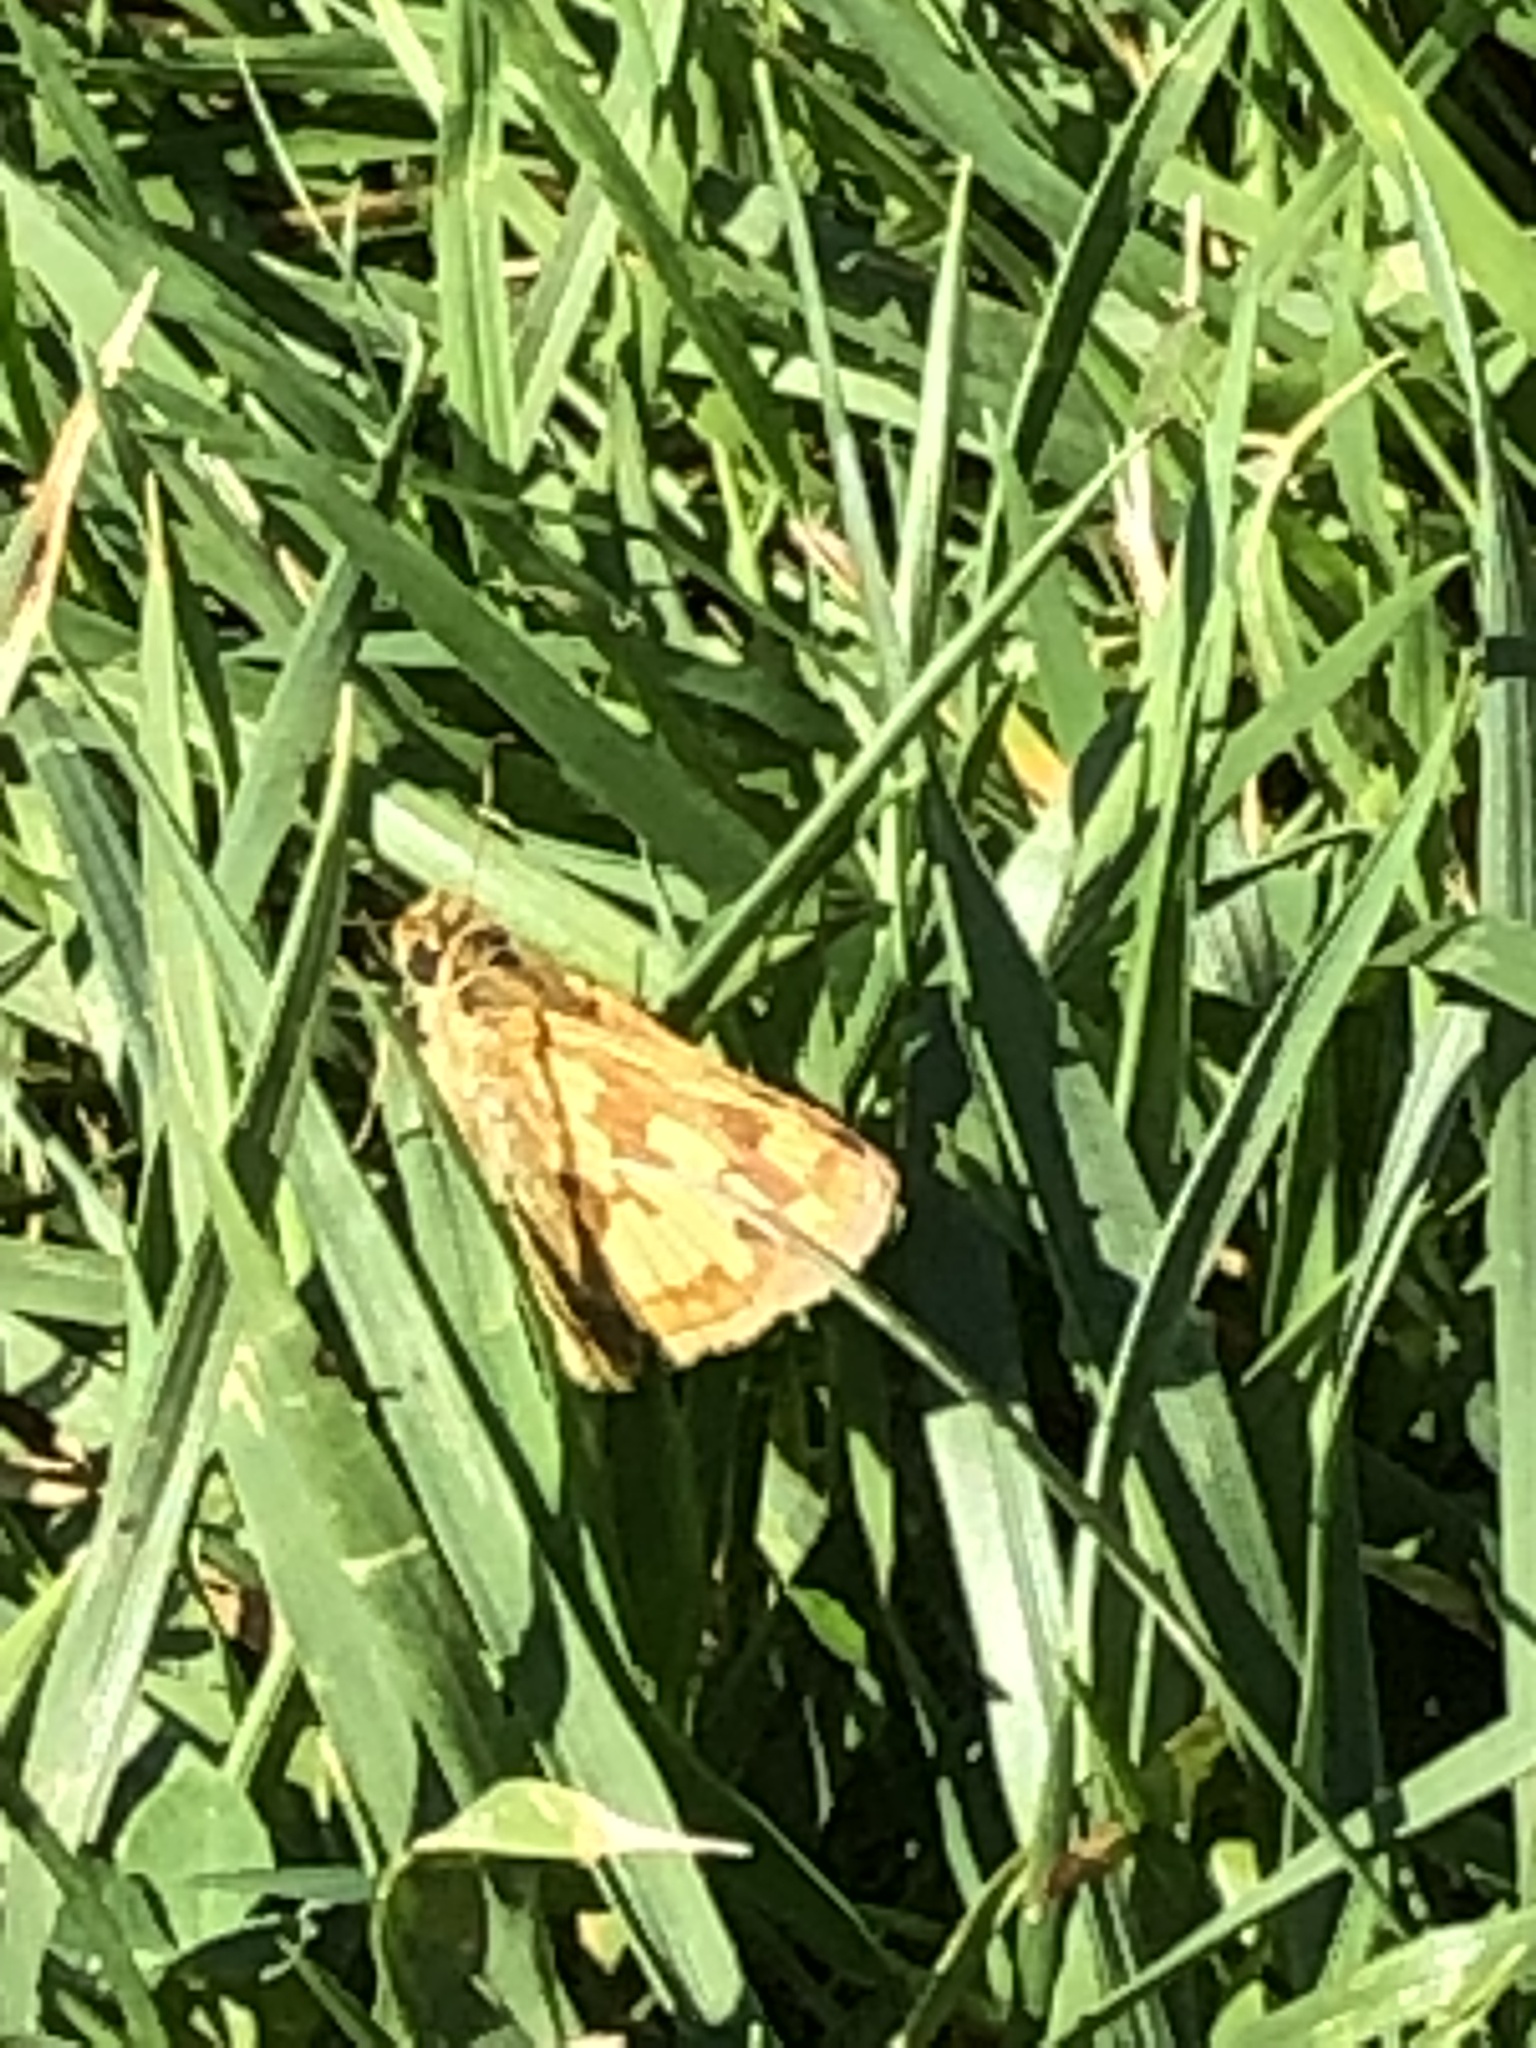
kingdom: Animalia
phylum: Arthropoda
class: Insecta
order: Lepidoptera
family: Hesperiidae
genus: Polites
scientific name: Polites coras
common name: Peck's skipper
